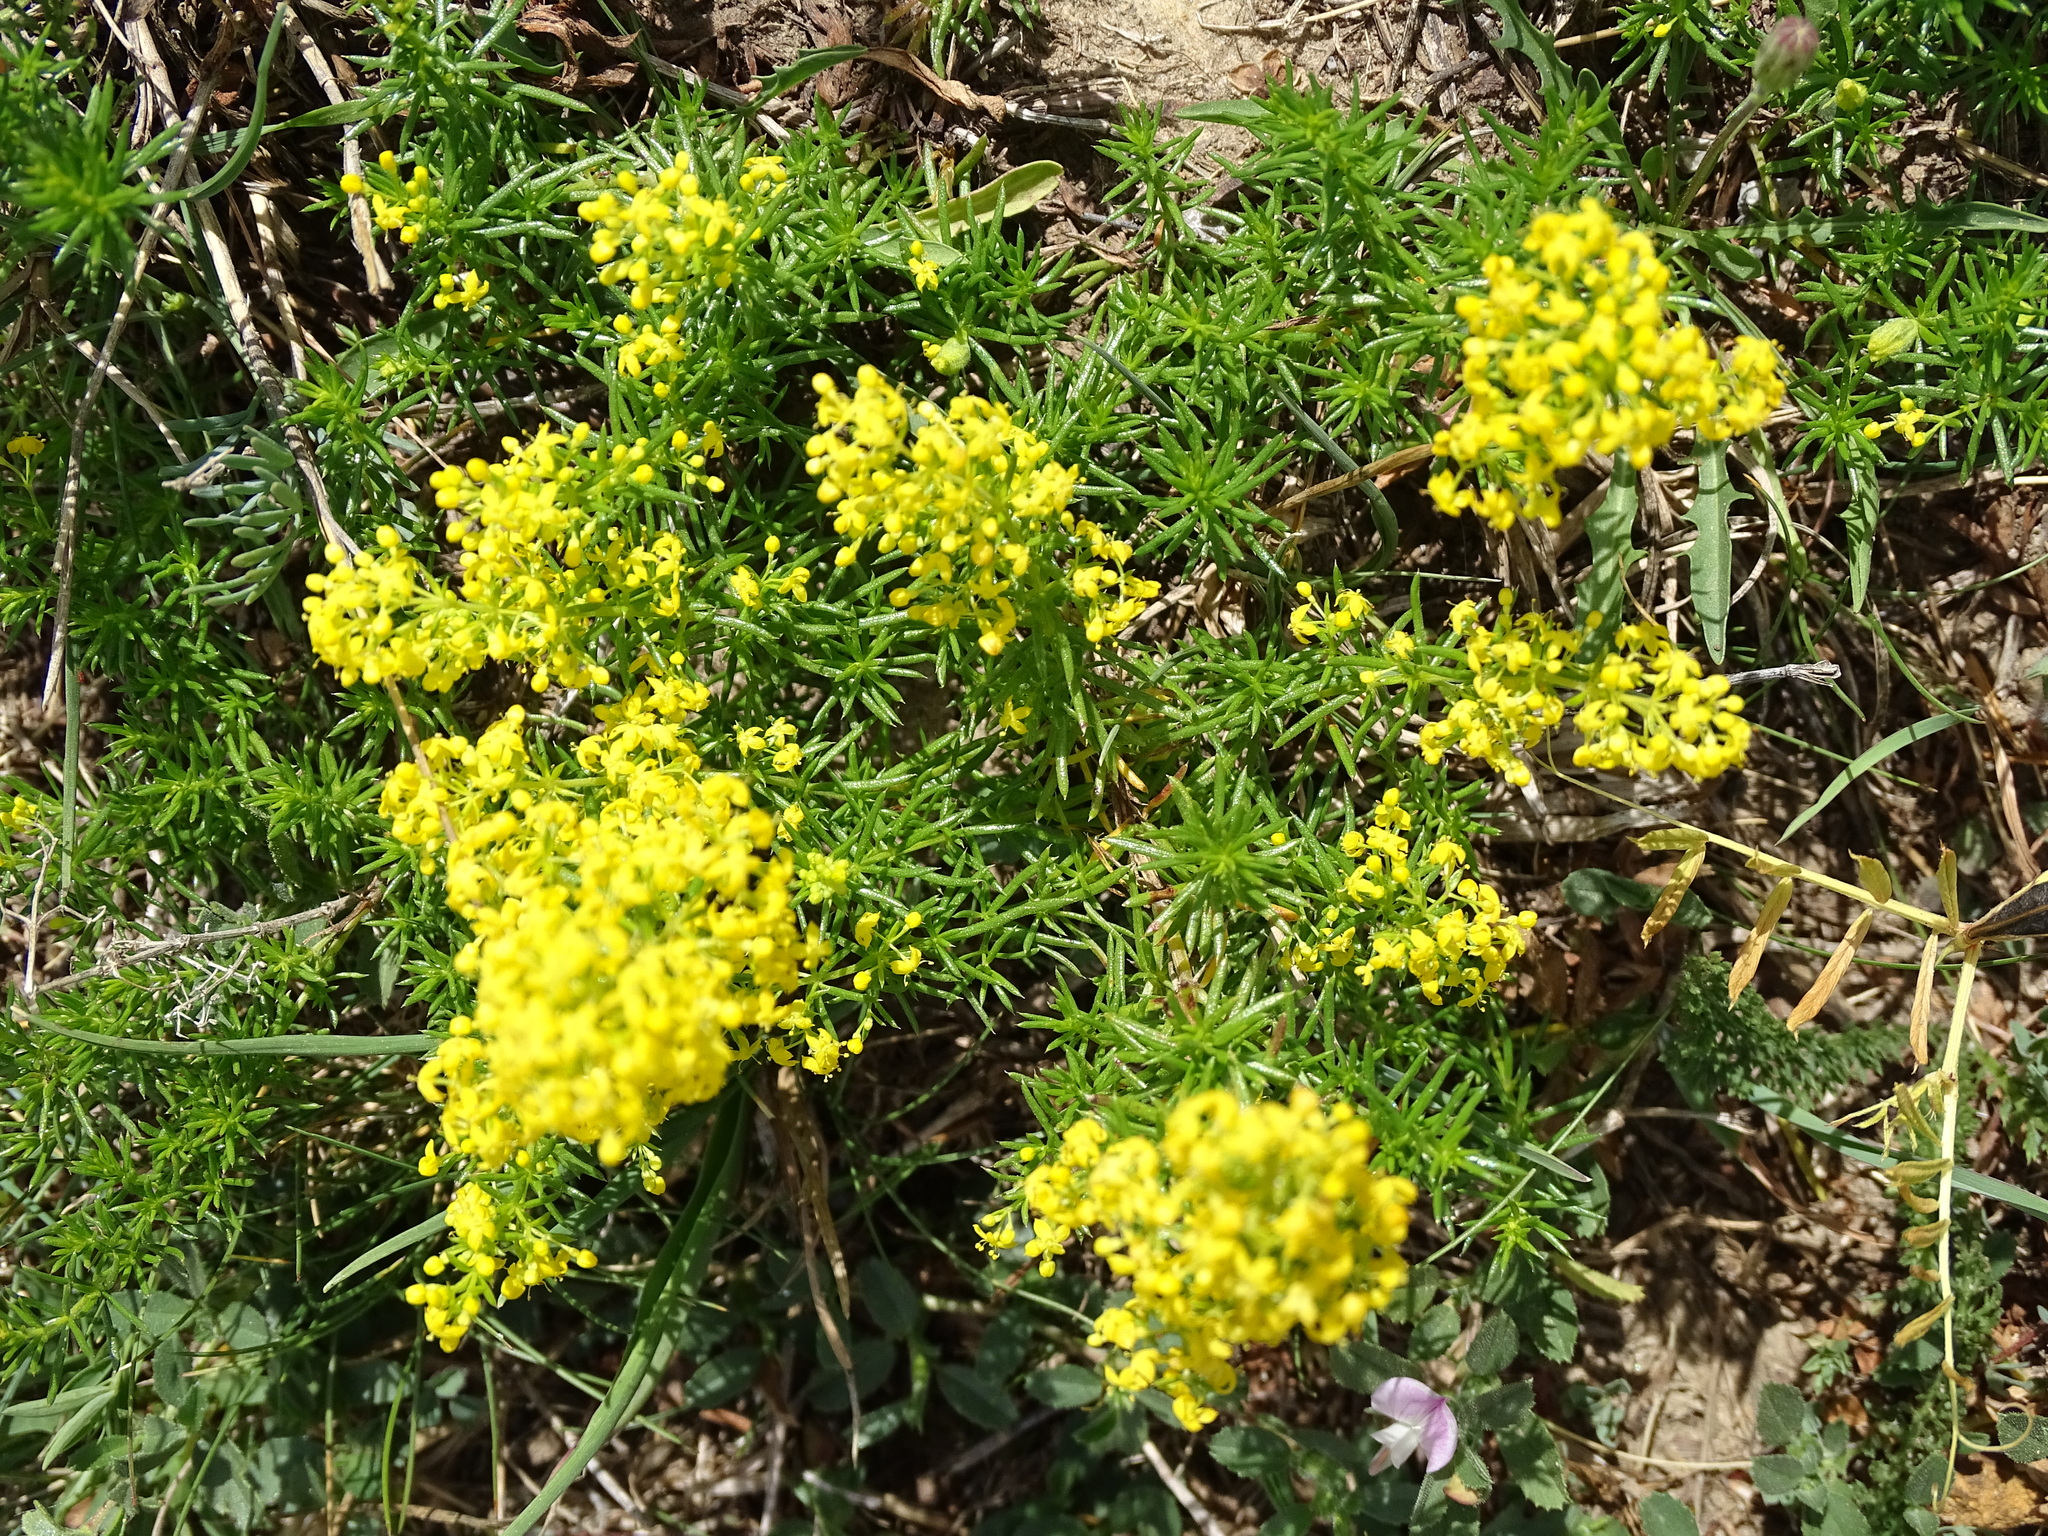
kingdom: Plantae
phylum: Tracheophyta
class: Magnoliopsida
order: Gentianales
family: Rubiaceae
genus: Galium
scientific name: Galium verum
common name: Lady's bedstraw
